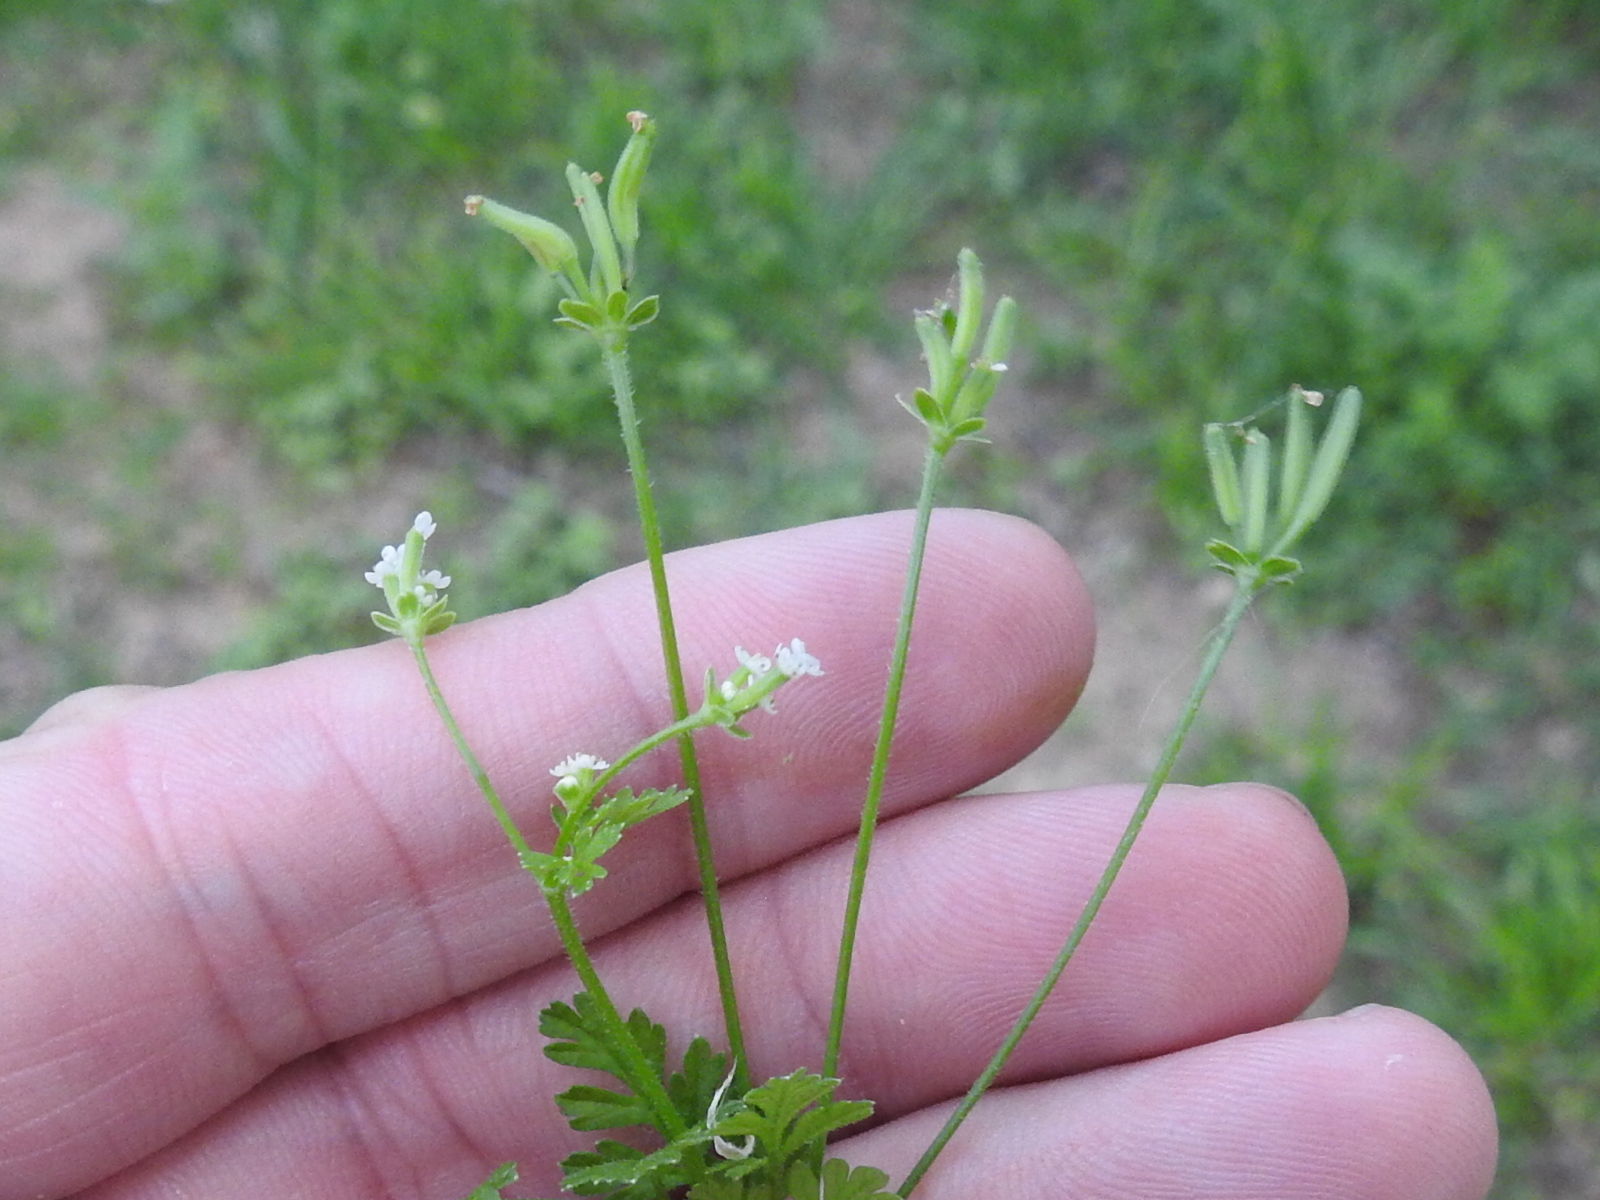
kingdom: Plantae
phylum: Tracheophyta
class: Magnoliopsida
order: Apiales
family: Apiaceae
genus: Chaerophyllum
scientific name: Chaerophyllum tainturieri
